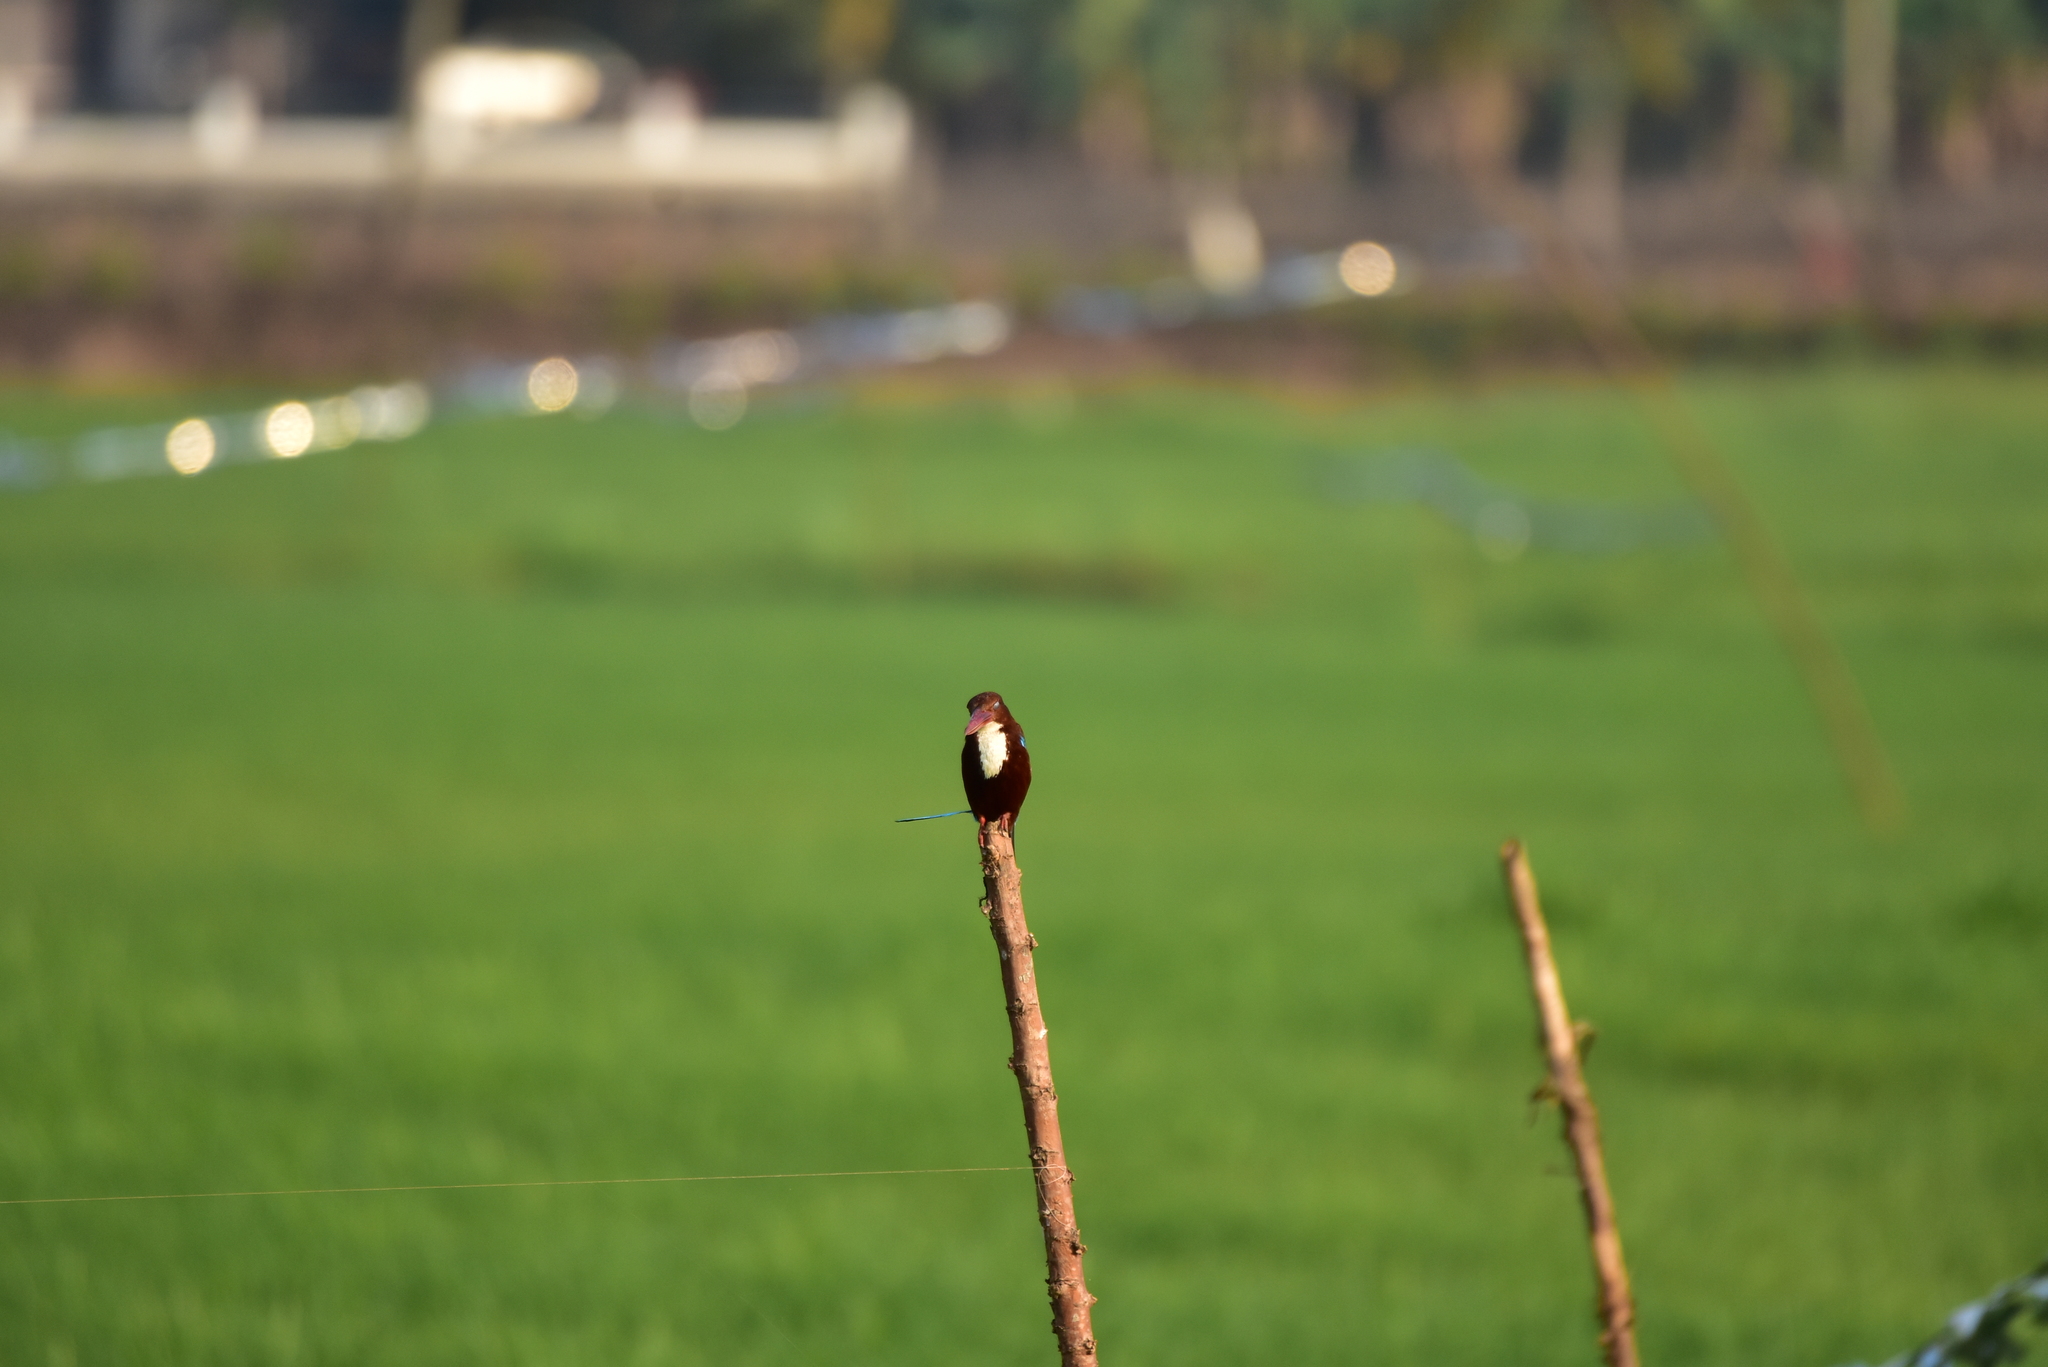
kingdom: Animalia
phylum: Chordata
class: Aves
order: Coraciiformes
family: Alcedinidae
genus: Halcyon
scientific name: Halcyon smyrnensis
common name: White-throated kingfisher
